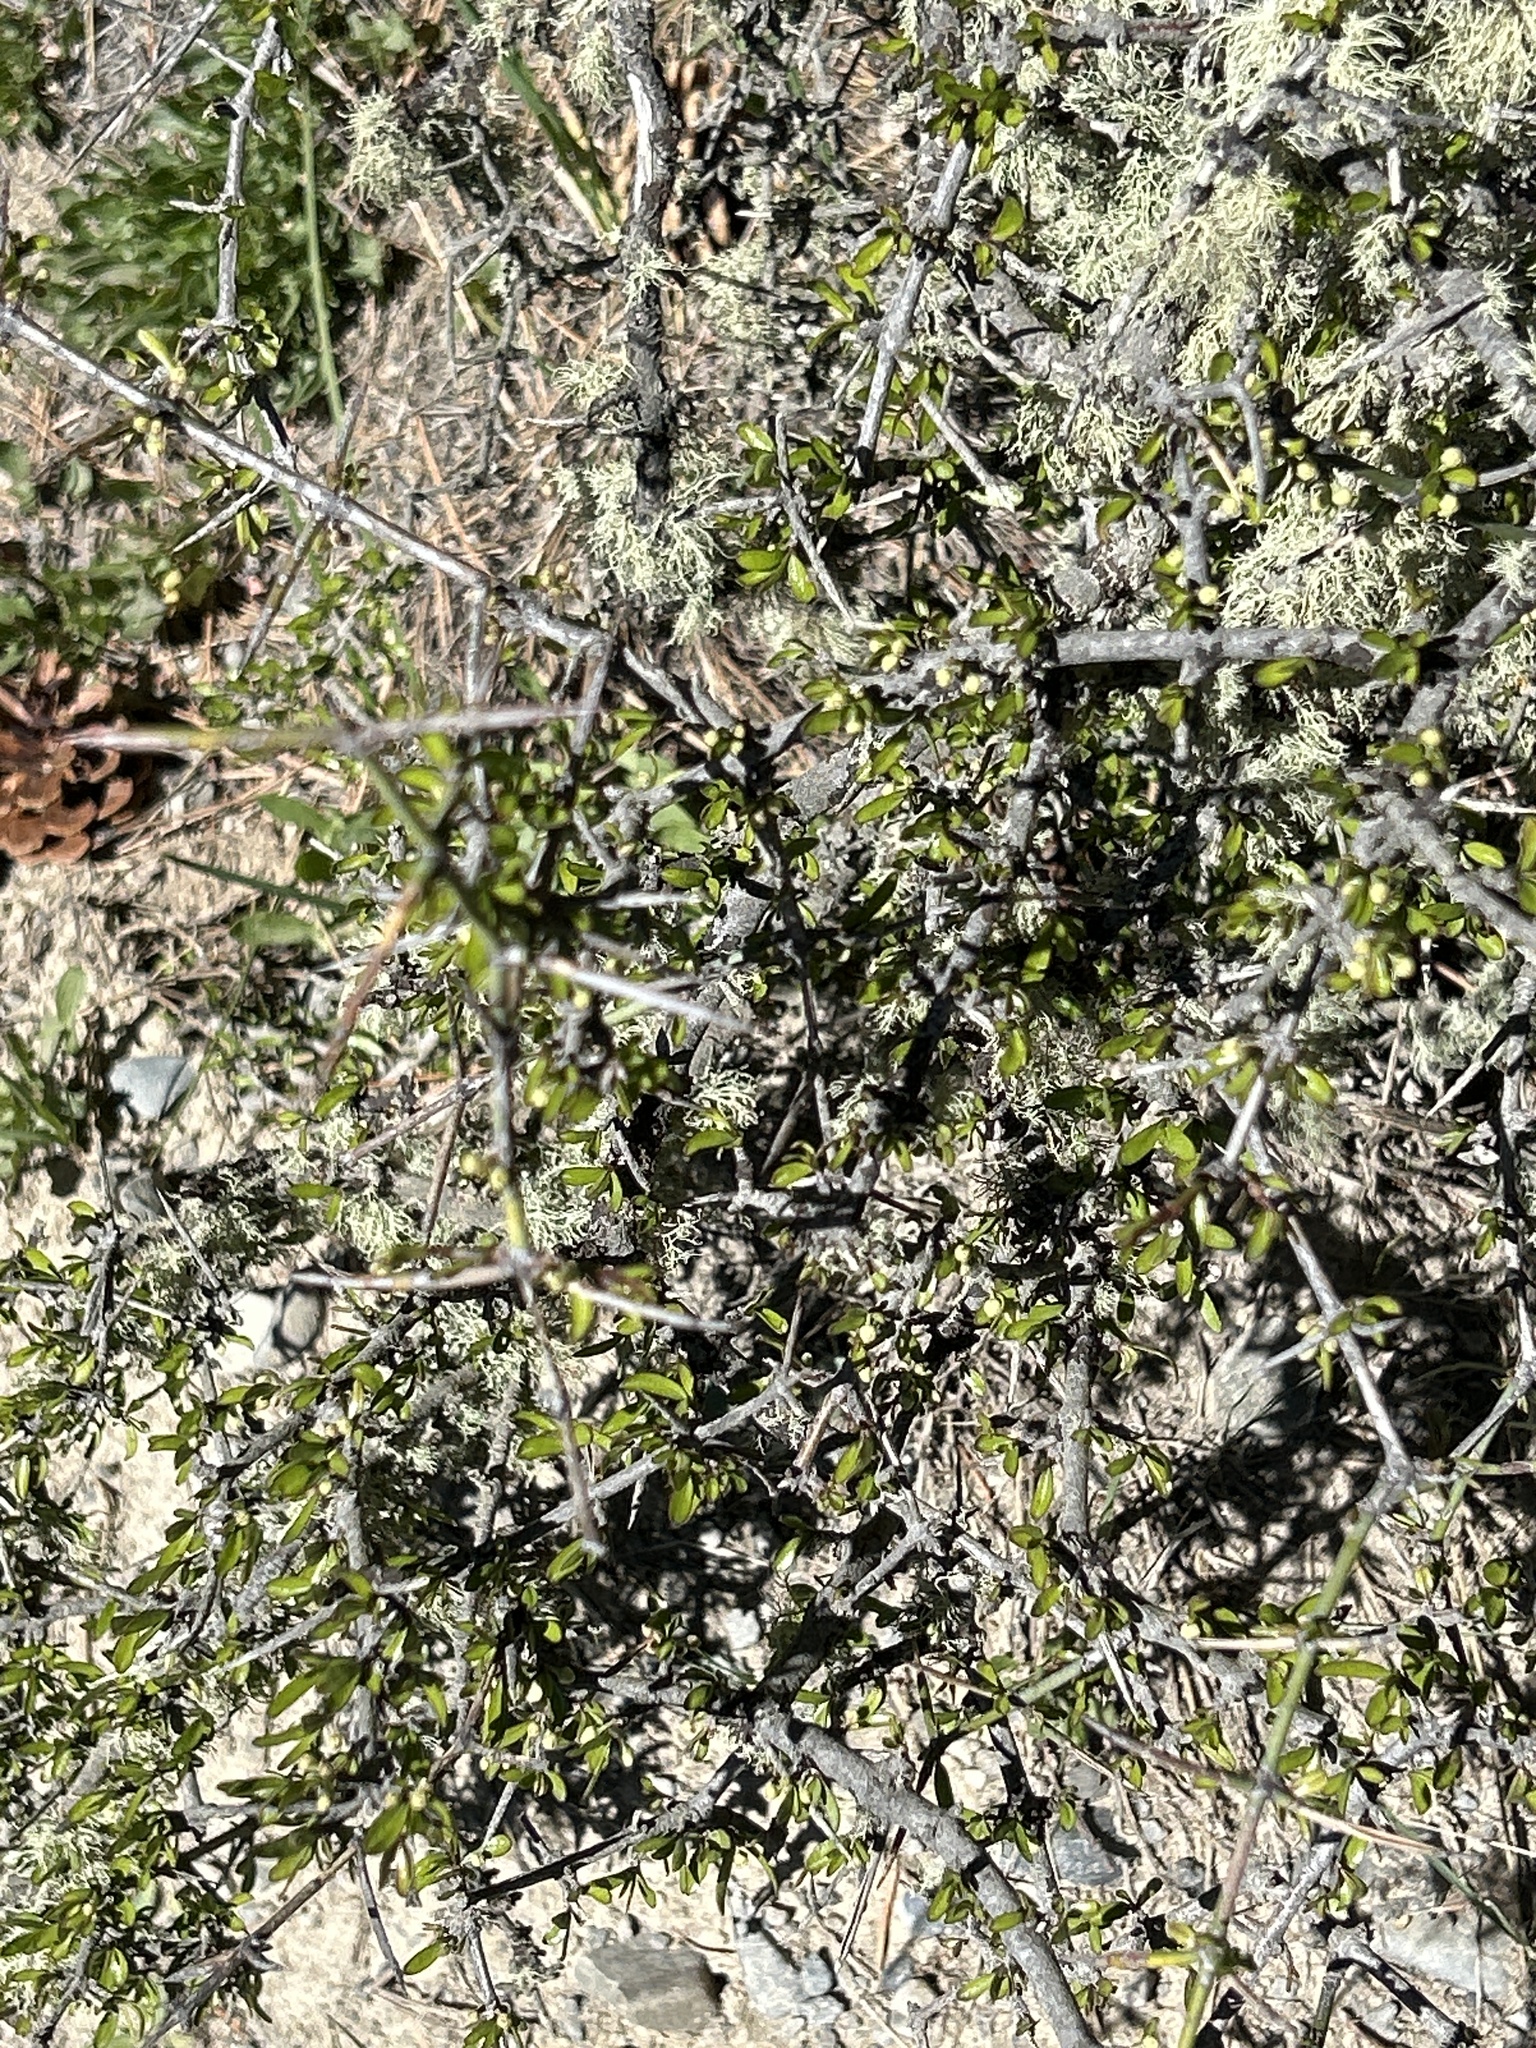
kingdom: Plantae
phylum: Tracheophyta
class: Magnoliopsida
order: Rosales
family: Rhamnaceae
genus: Discaria
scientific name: Discaria toumatou
